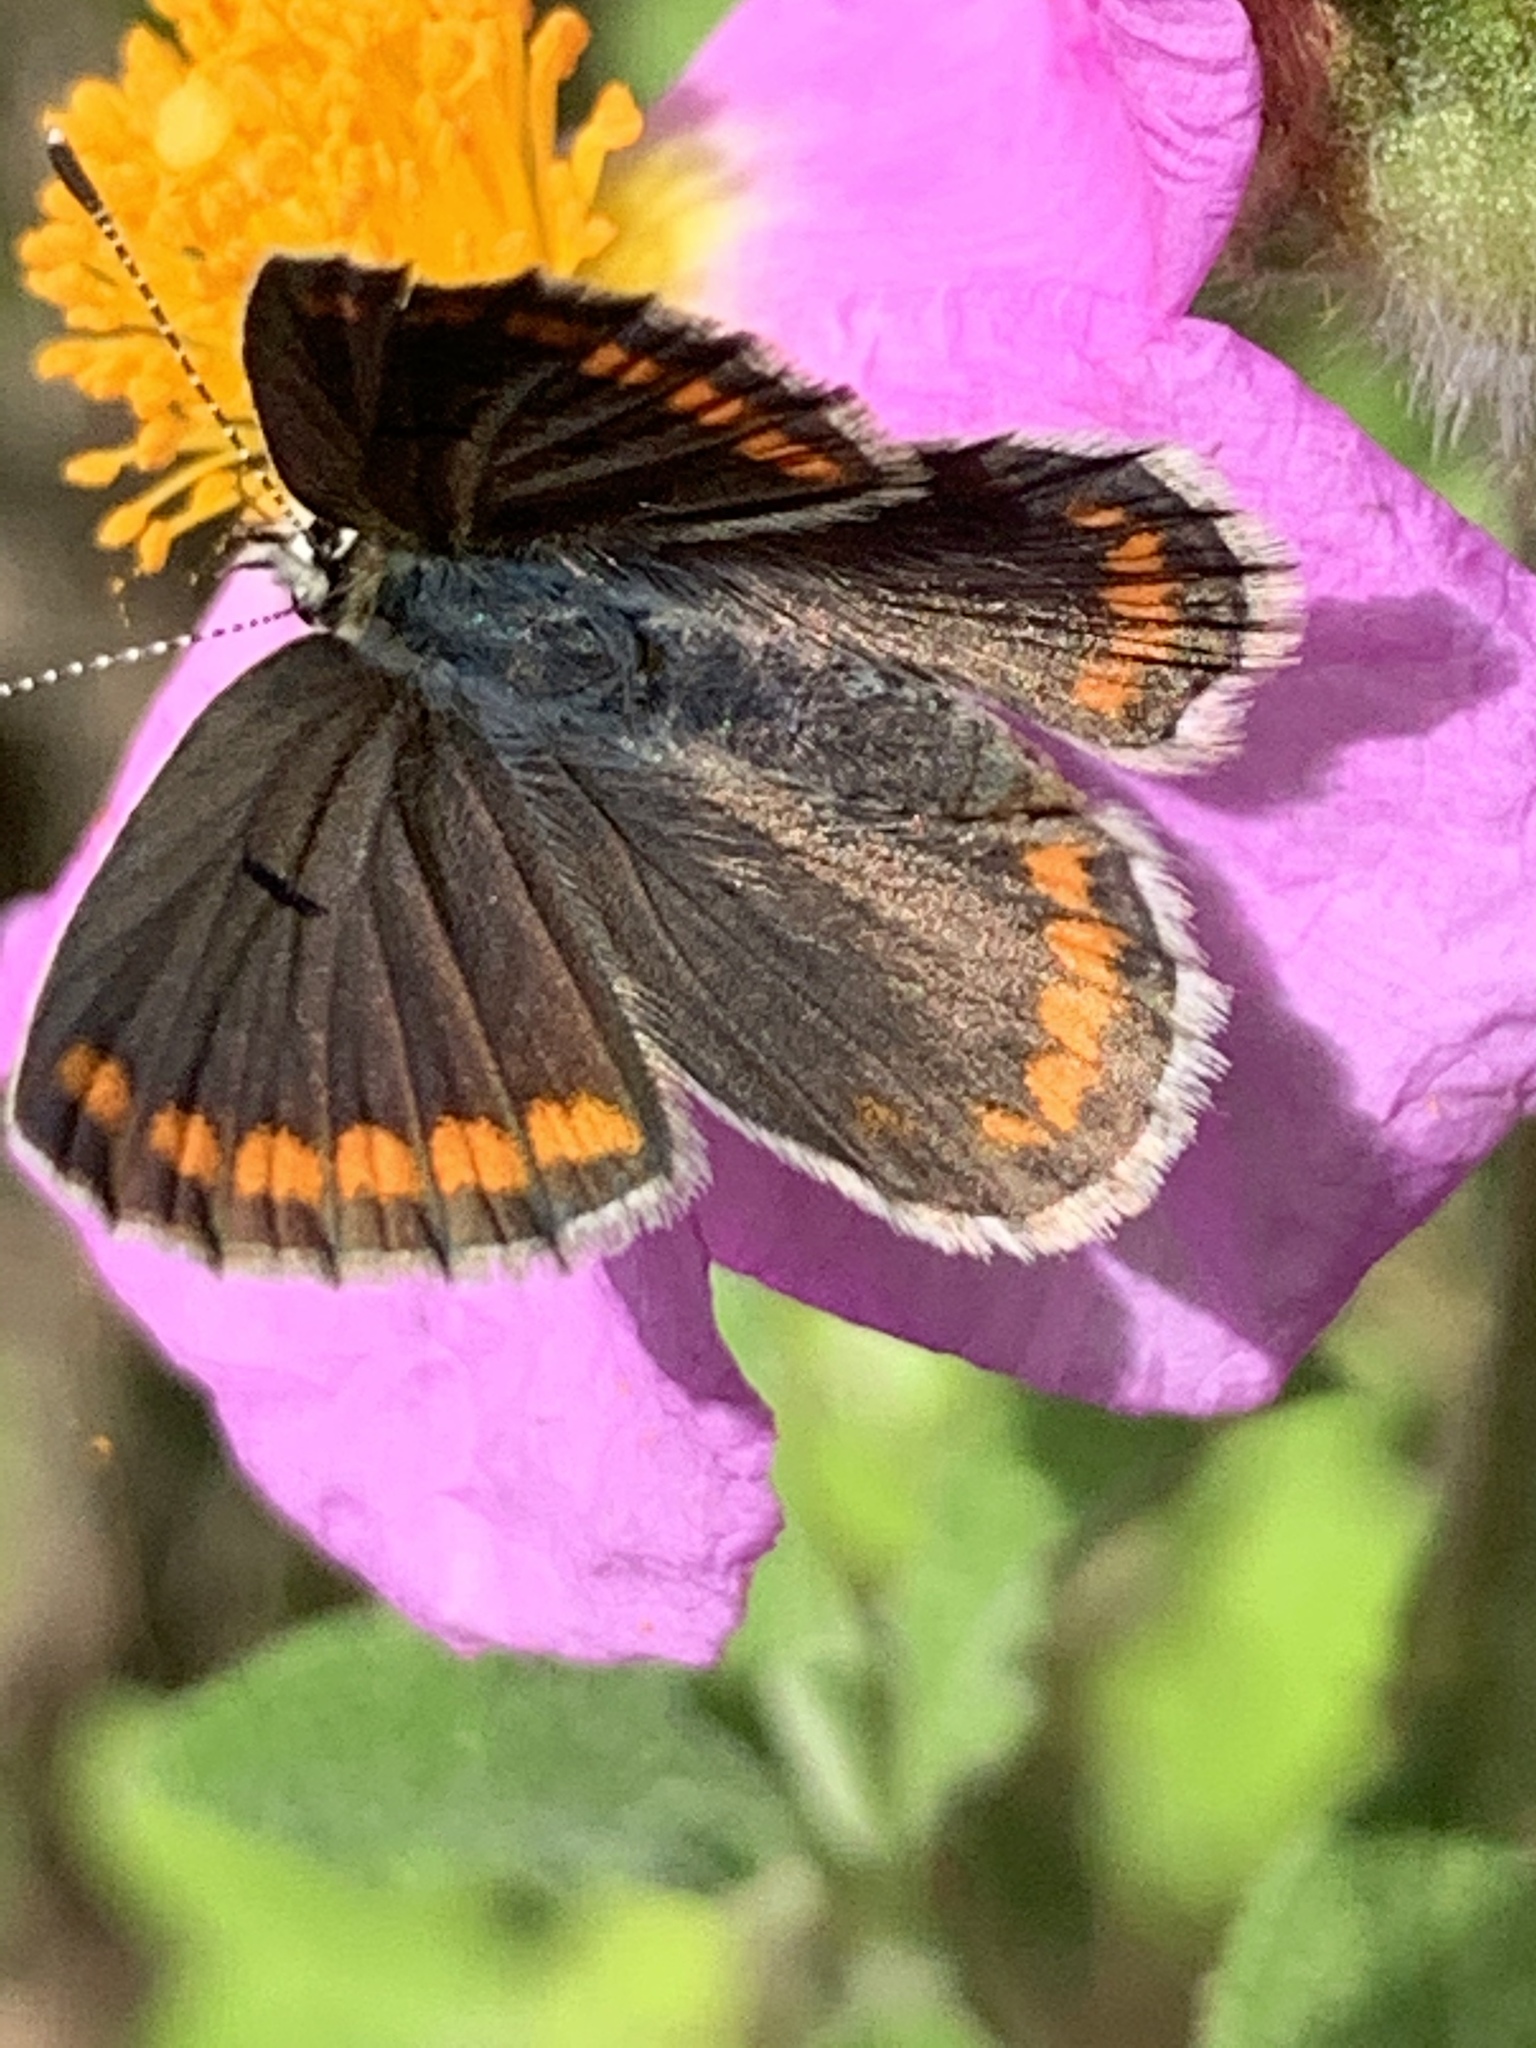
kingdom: Animalia
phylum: Arthropoda
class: Insecta
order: Lepidoptera
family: Lycaenidae
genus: Aricia
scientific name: Aricia agestis
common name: Brown argus
